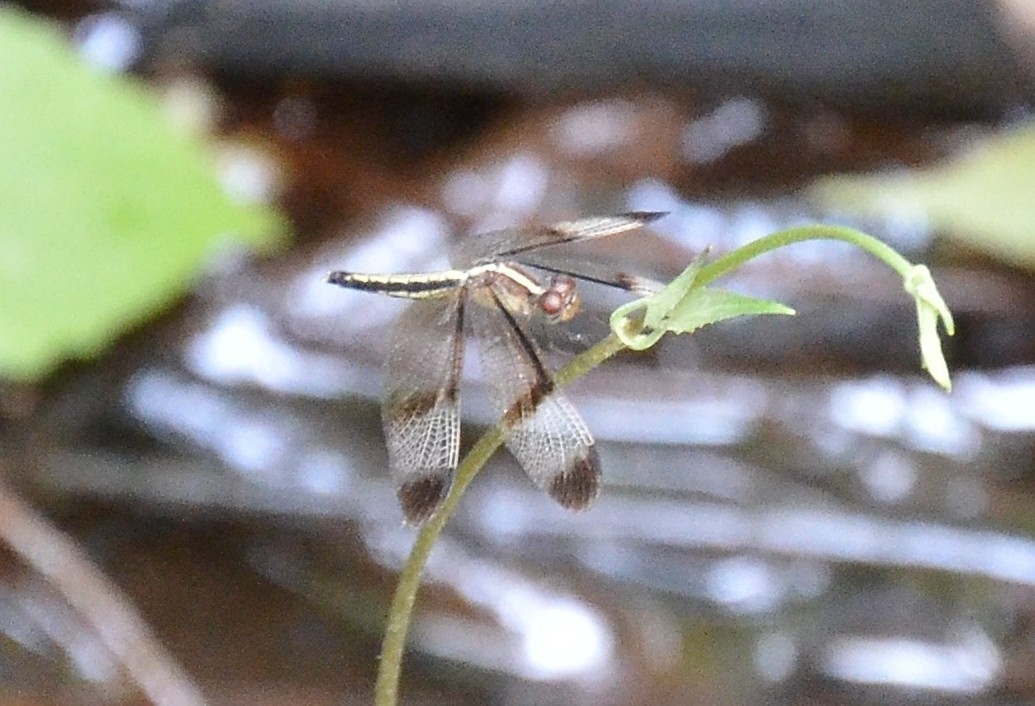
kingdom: Animalia
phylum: Arthropoda
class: Insecta
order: Odonata
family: Libellulidae
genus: Neurothemis
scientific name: Neurothemis tullia
